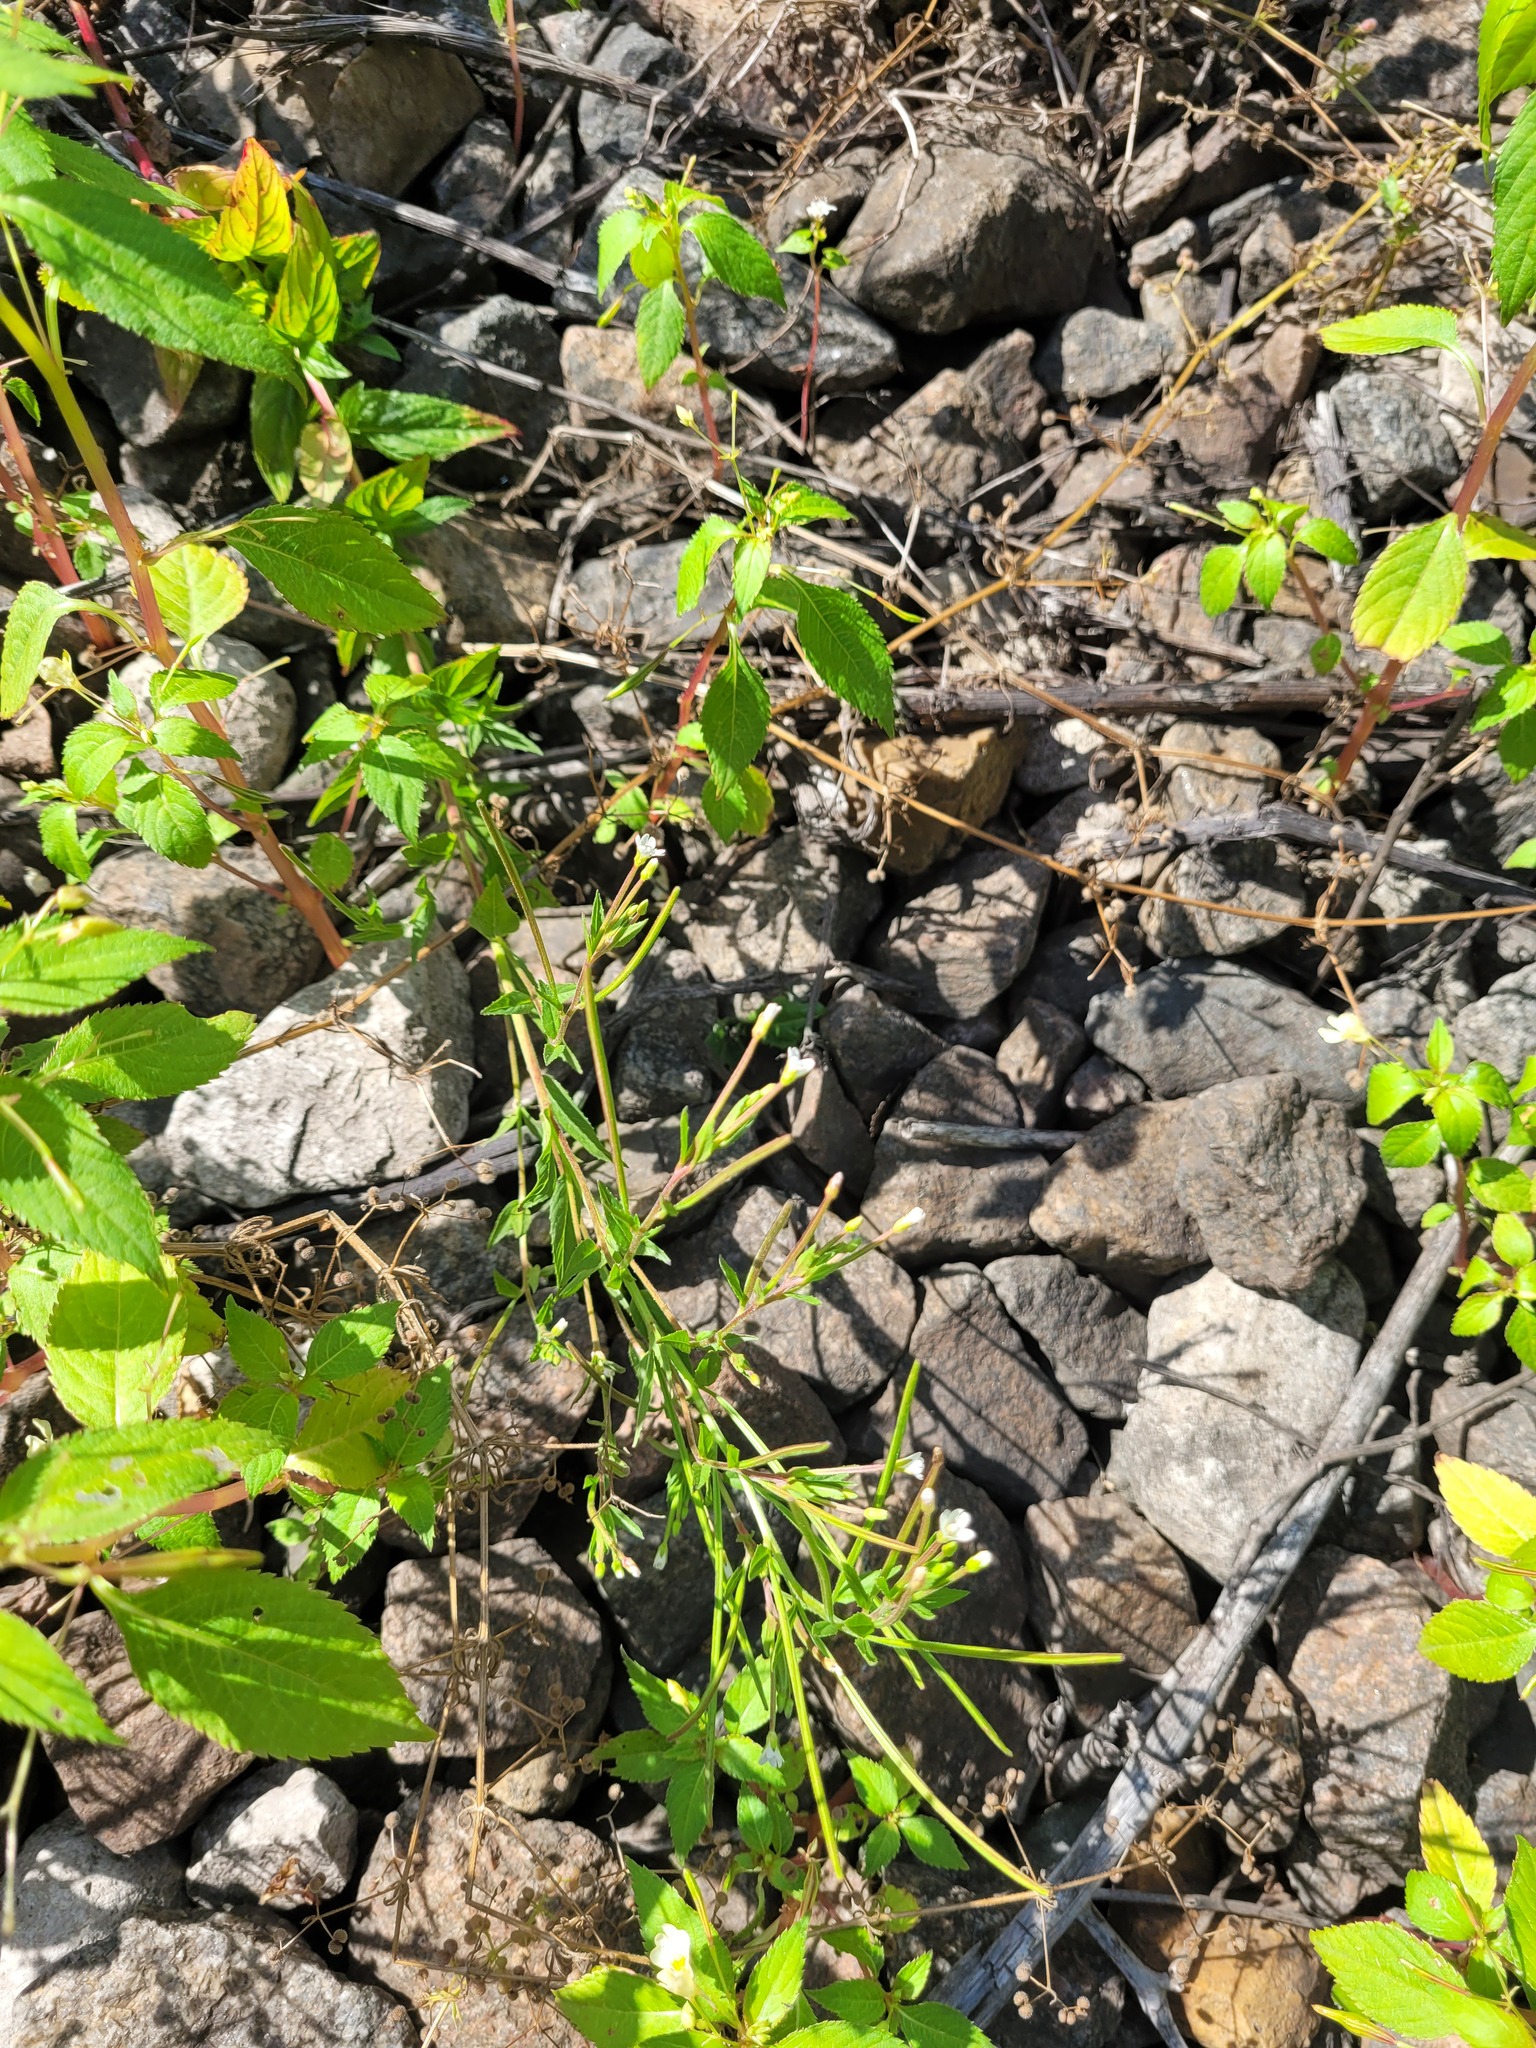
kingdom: Plantae
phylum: Tracheophyta
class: Magnoliopsida
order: Myrtales
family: Onagraceae
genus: Epilobium
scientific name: Epilobium pseudorubescens
